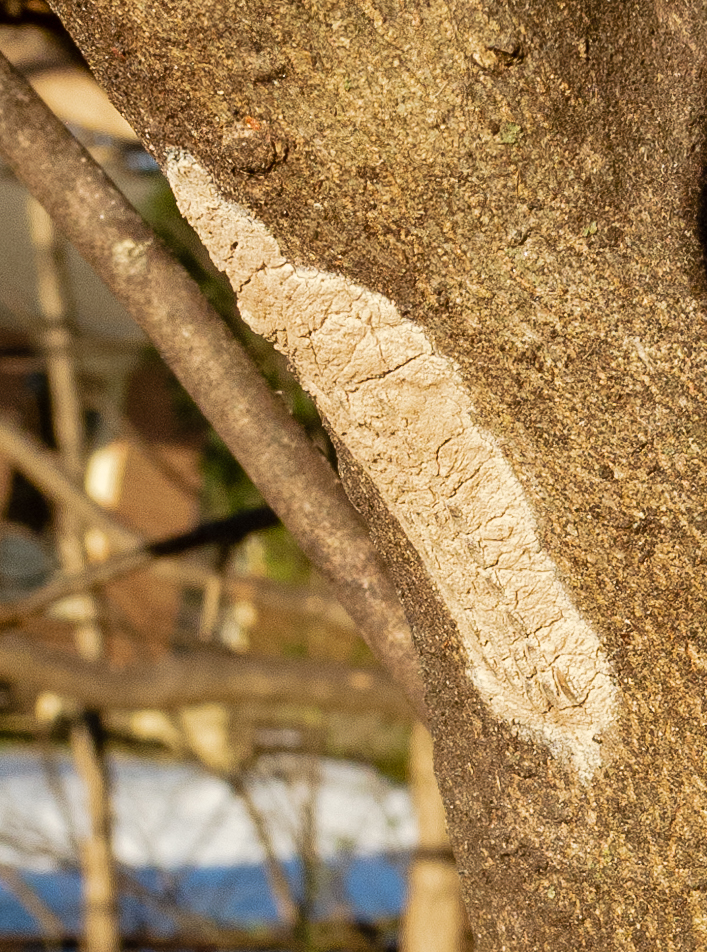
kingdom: Animalia
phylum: Arthropoda
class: Insecta
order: Hemiptera
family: Fulgoridae
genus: Lycorma
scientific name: Lycorma delicatula
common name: Spotted lanternfly
